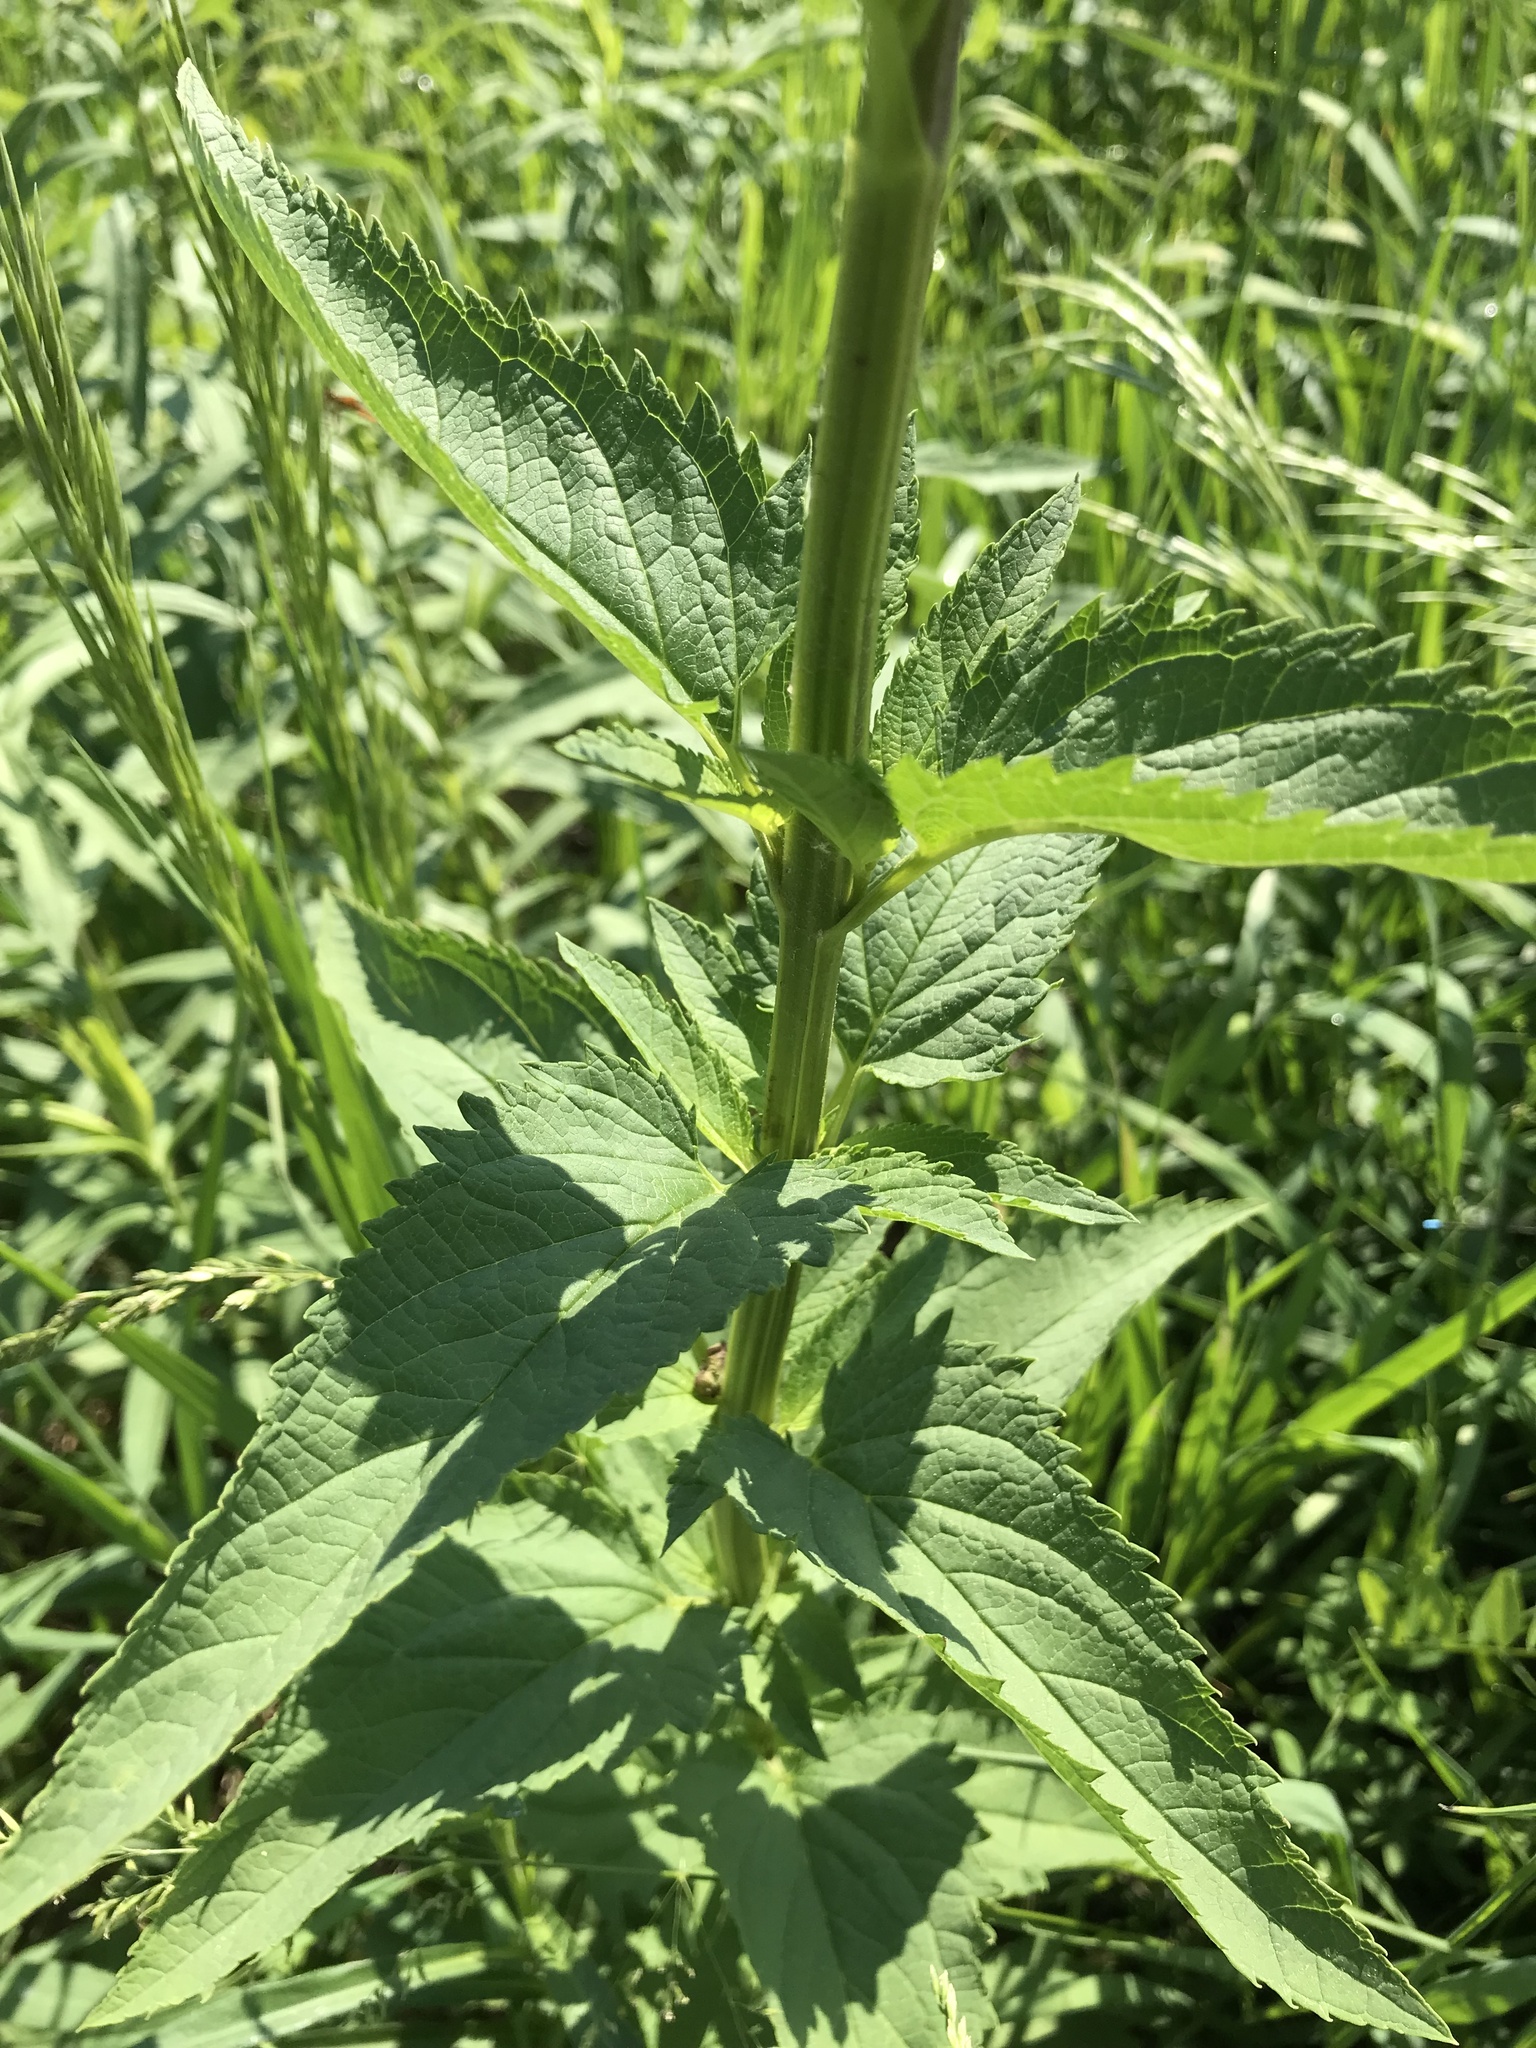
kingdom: Plantae
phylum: Tracheophyta
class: Magnoliopsida
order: Lamiales
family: Scrophulariaceae
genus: Scrophularia
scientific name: Scrophularia lanceolata
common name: American figwort
